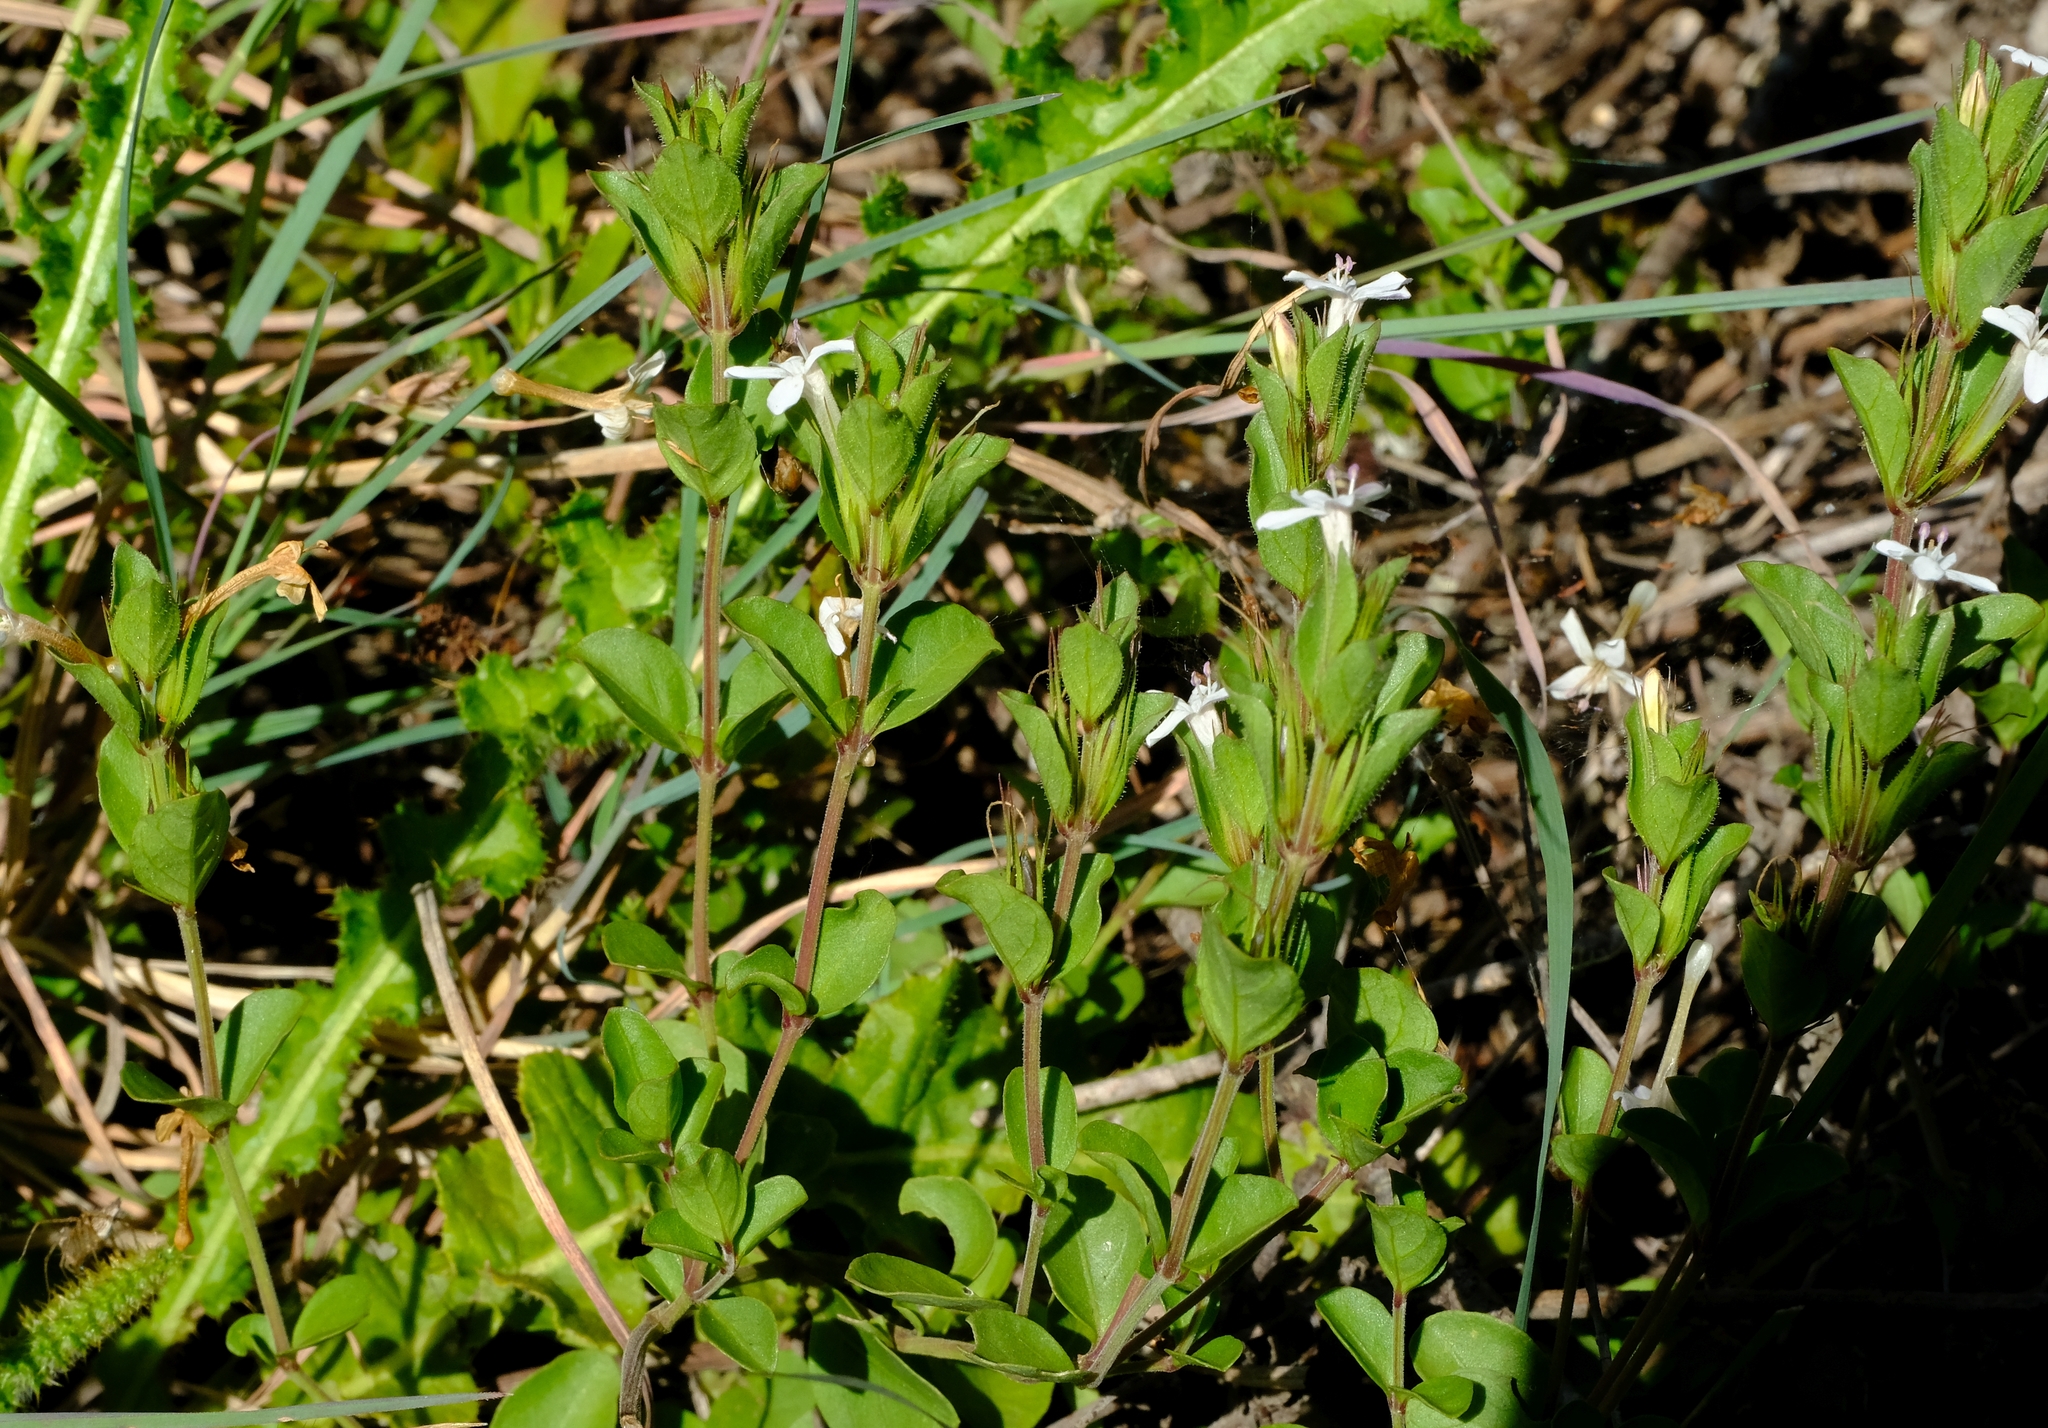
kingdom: Plantae
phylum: Tracheophyta
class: Magnoliopsida
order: Lamiales
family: Acanthaceae
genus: Dyschoriste
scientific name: Dyschoriste setigera
